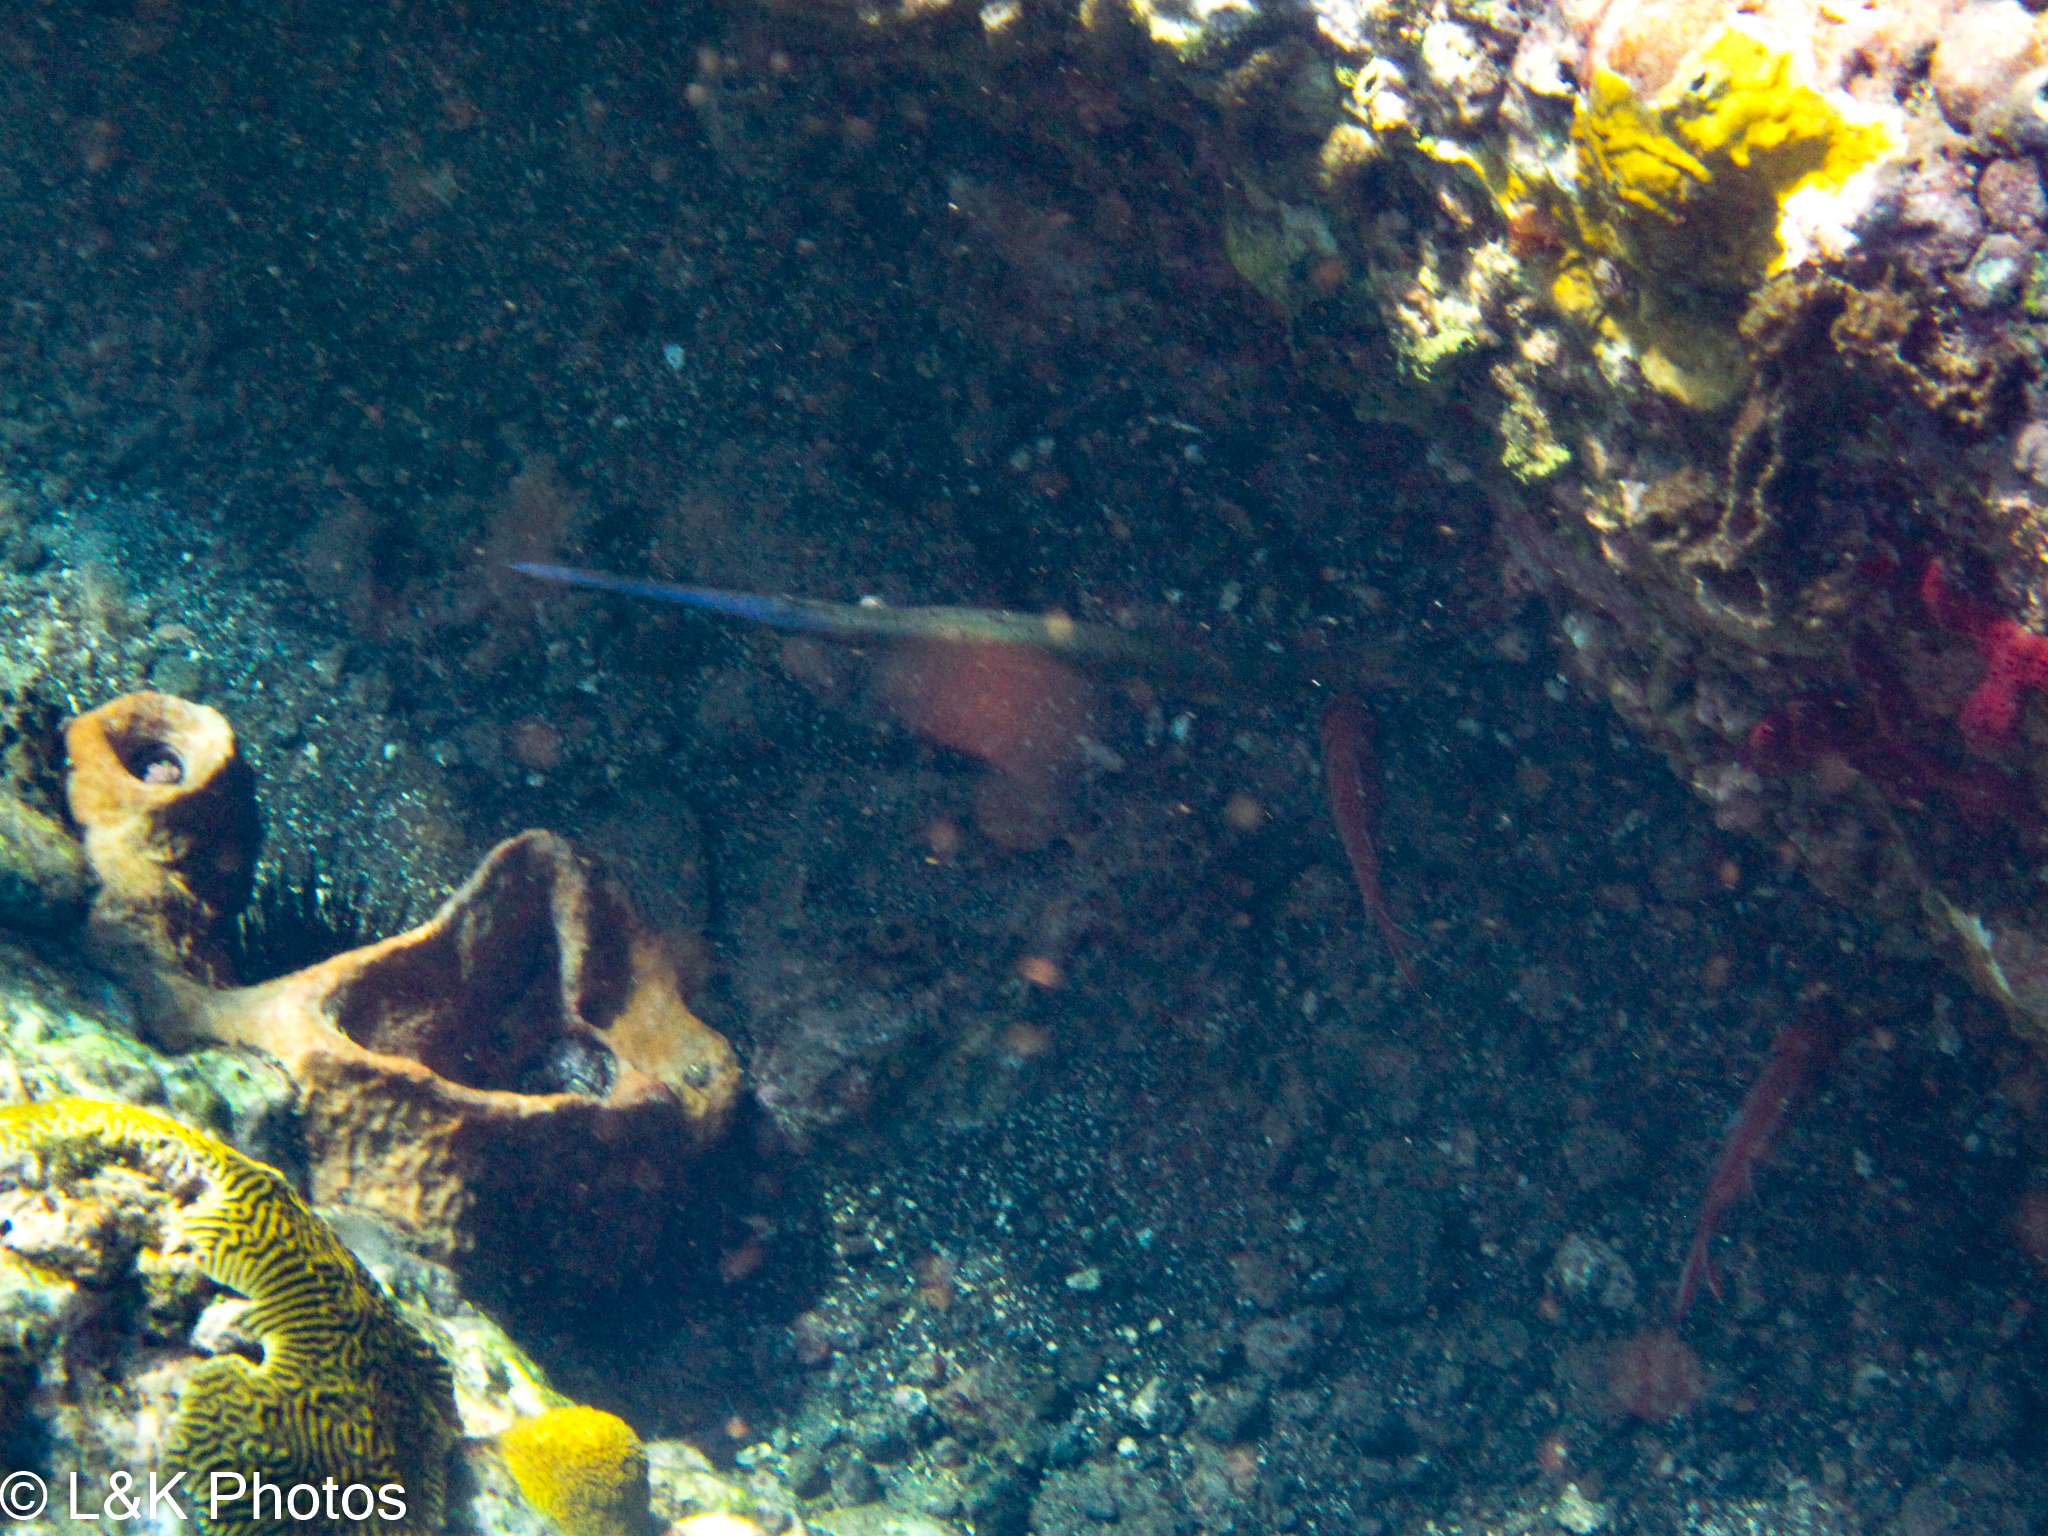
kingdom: Animalia
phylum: Chordata
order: Syngnathiformes
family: Aulostomidae
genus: Aulostomus
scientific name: Aulostomus maculatus
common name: West atlantic trumpetfish
